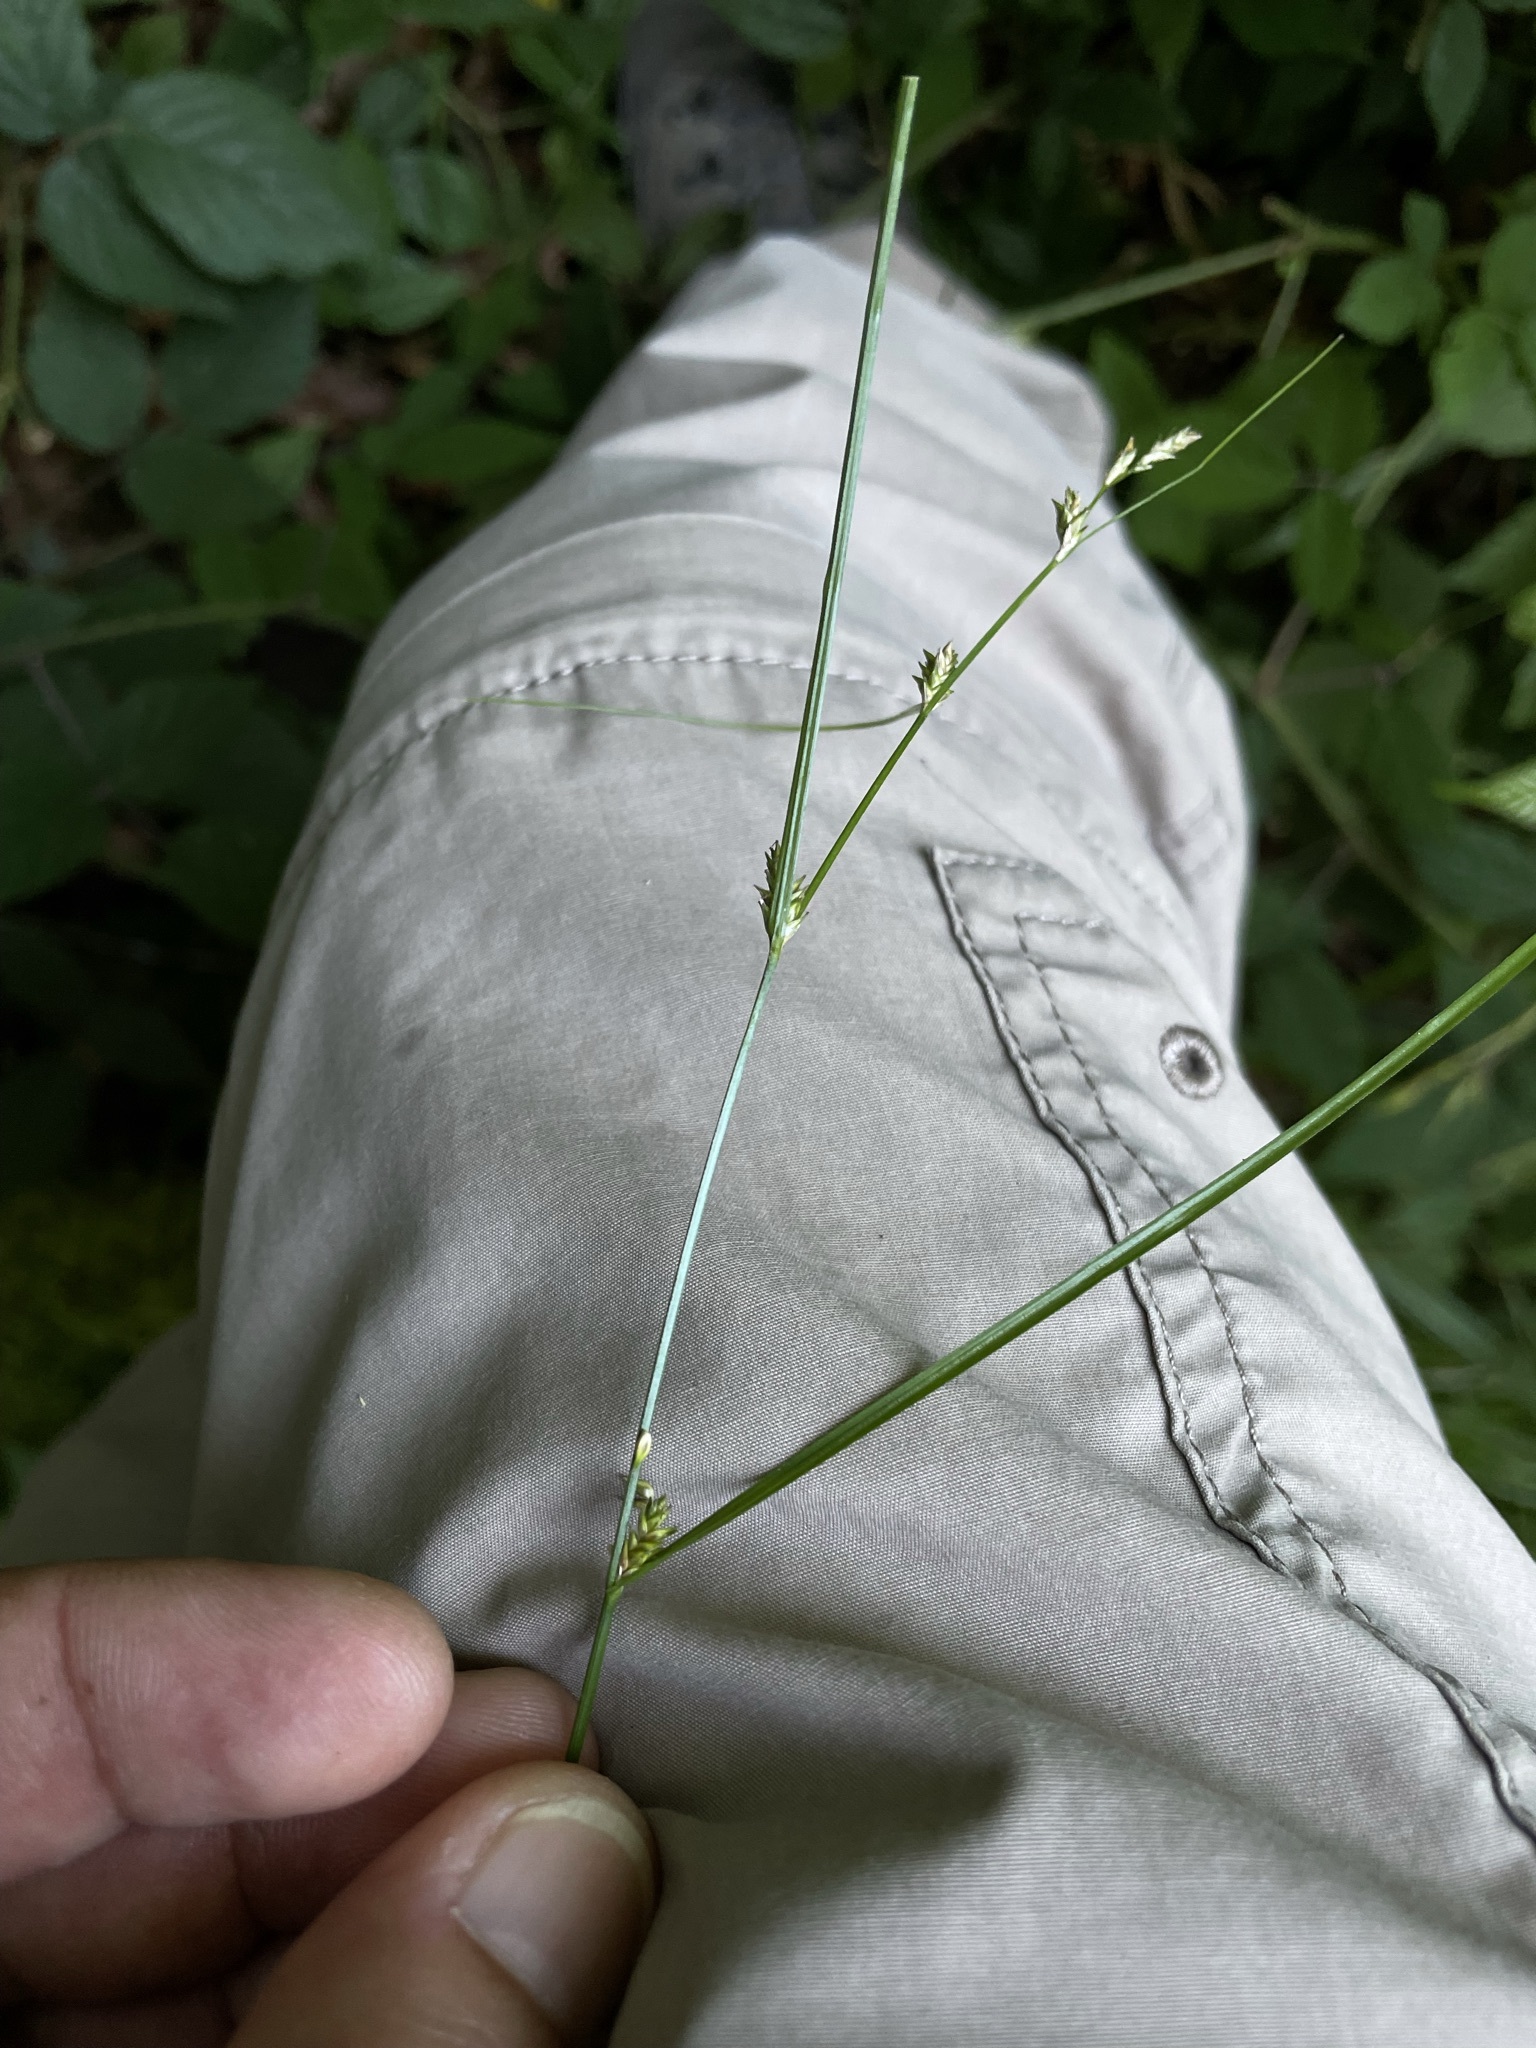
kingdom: Plantae
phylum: Tracheophyta
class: Liliopsida
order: Poales
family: Cyperaceae
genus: Carex
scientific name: Carex remota
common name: Remote sedge
